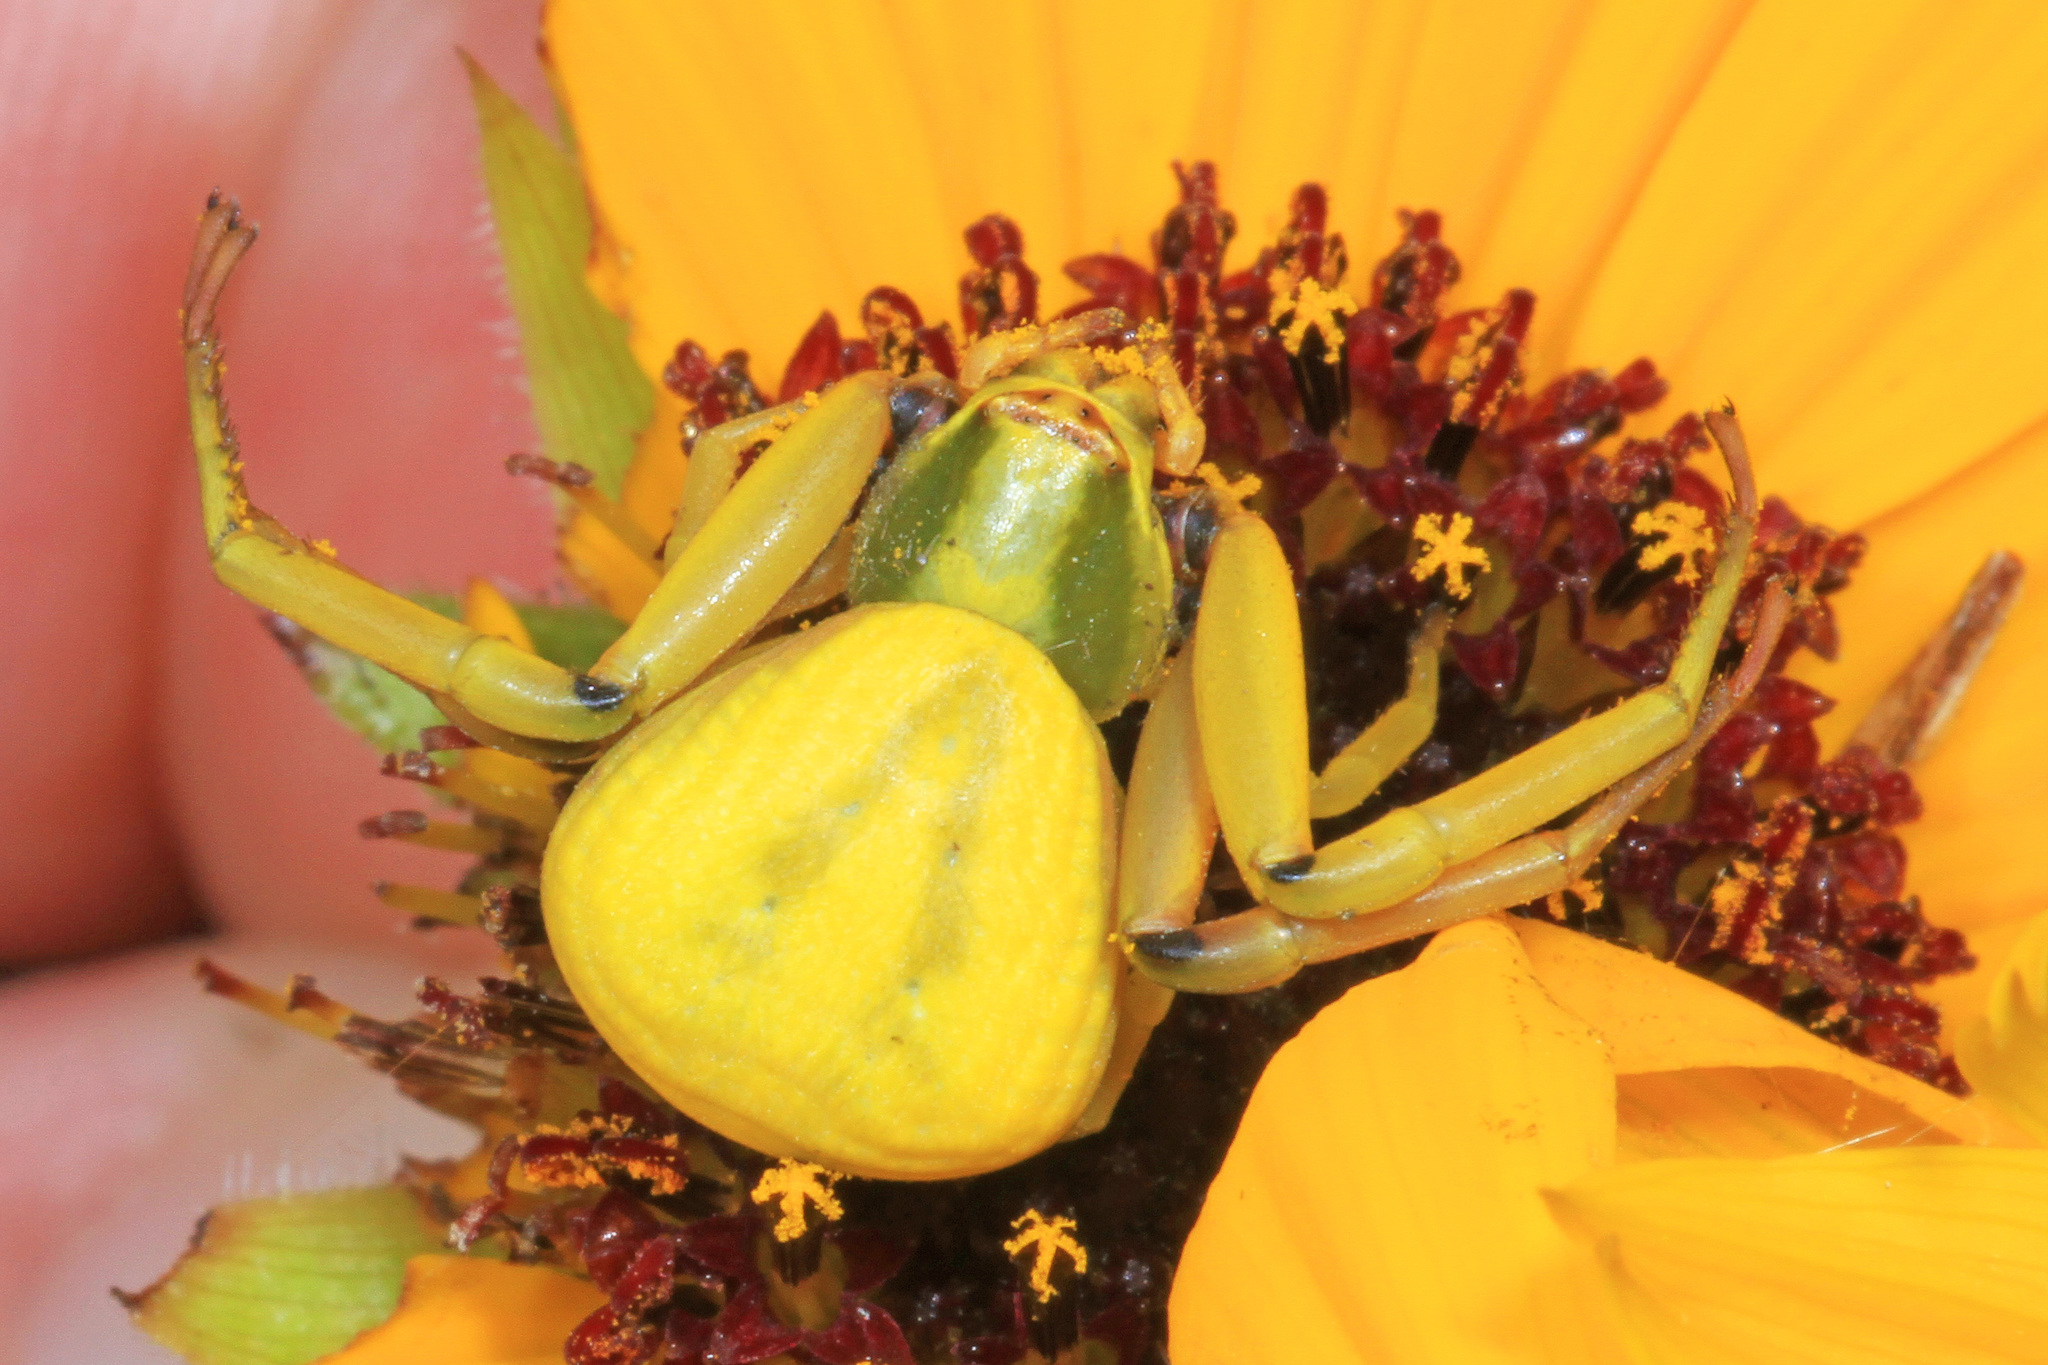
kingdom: Animalia
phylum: Arthropoda
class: Arachnida
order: Araneae
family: Thomisidae
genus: Misumenoides
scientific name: Misumenoides formosipes
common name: White-banded crab spider
